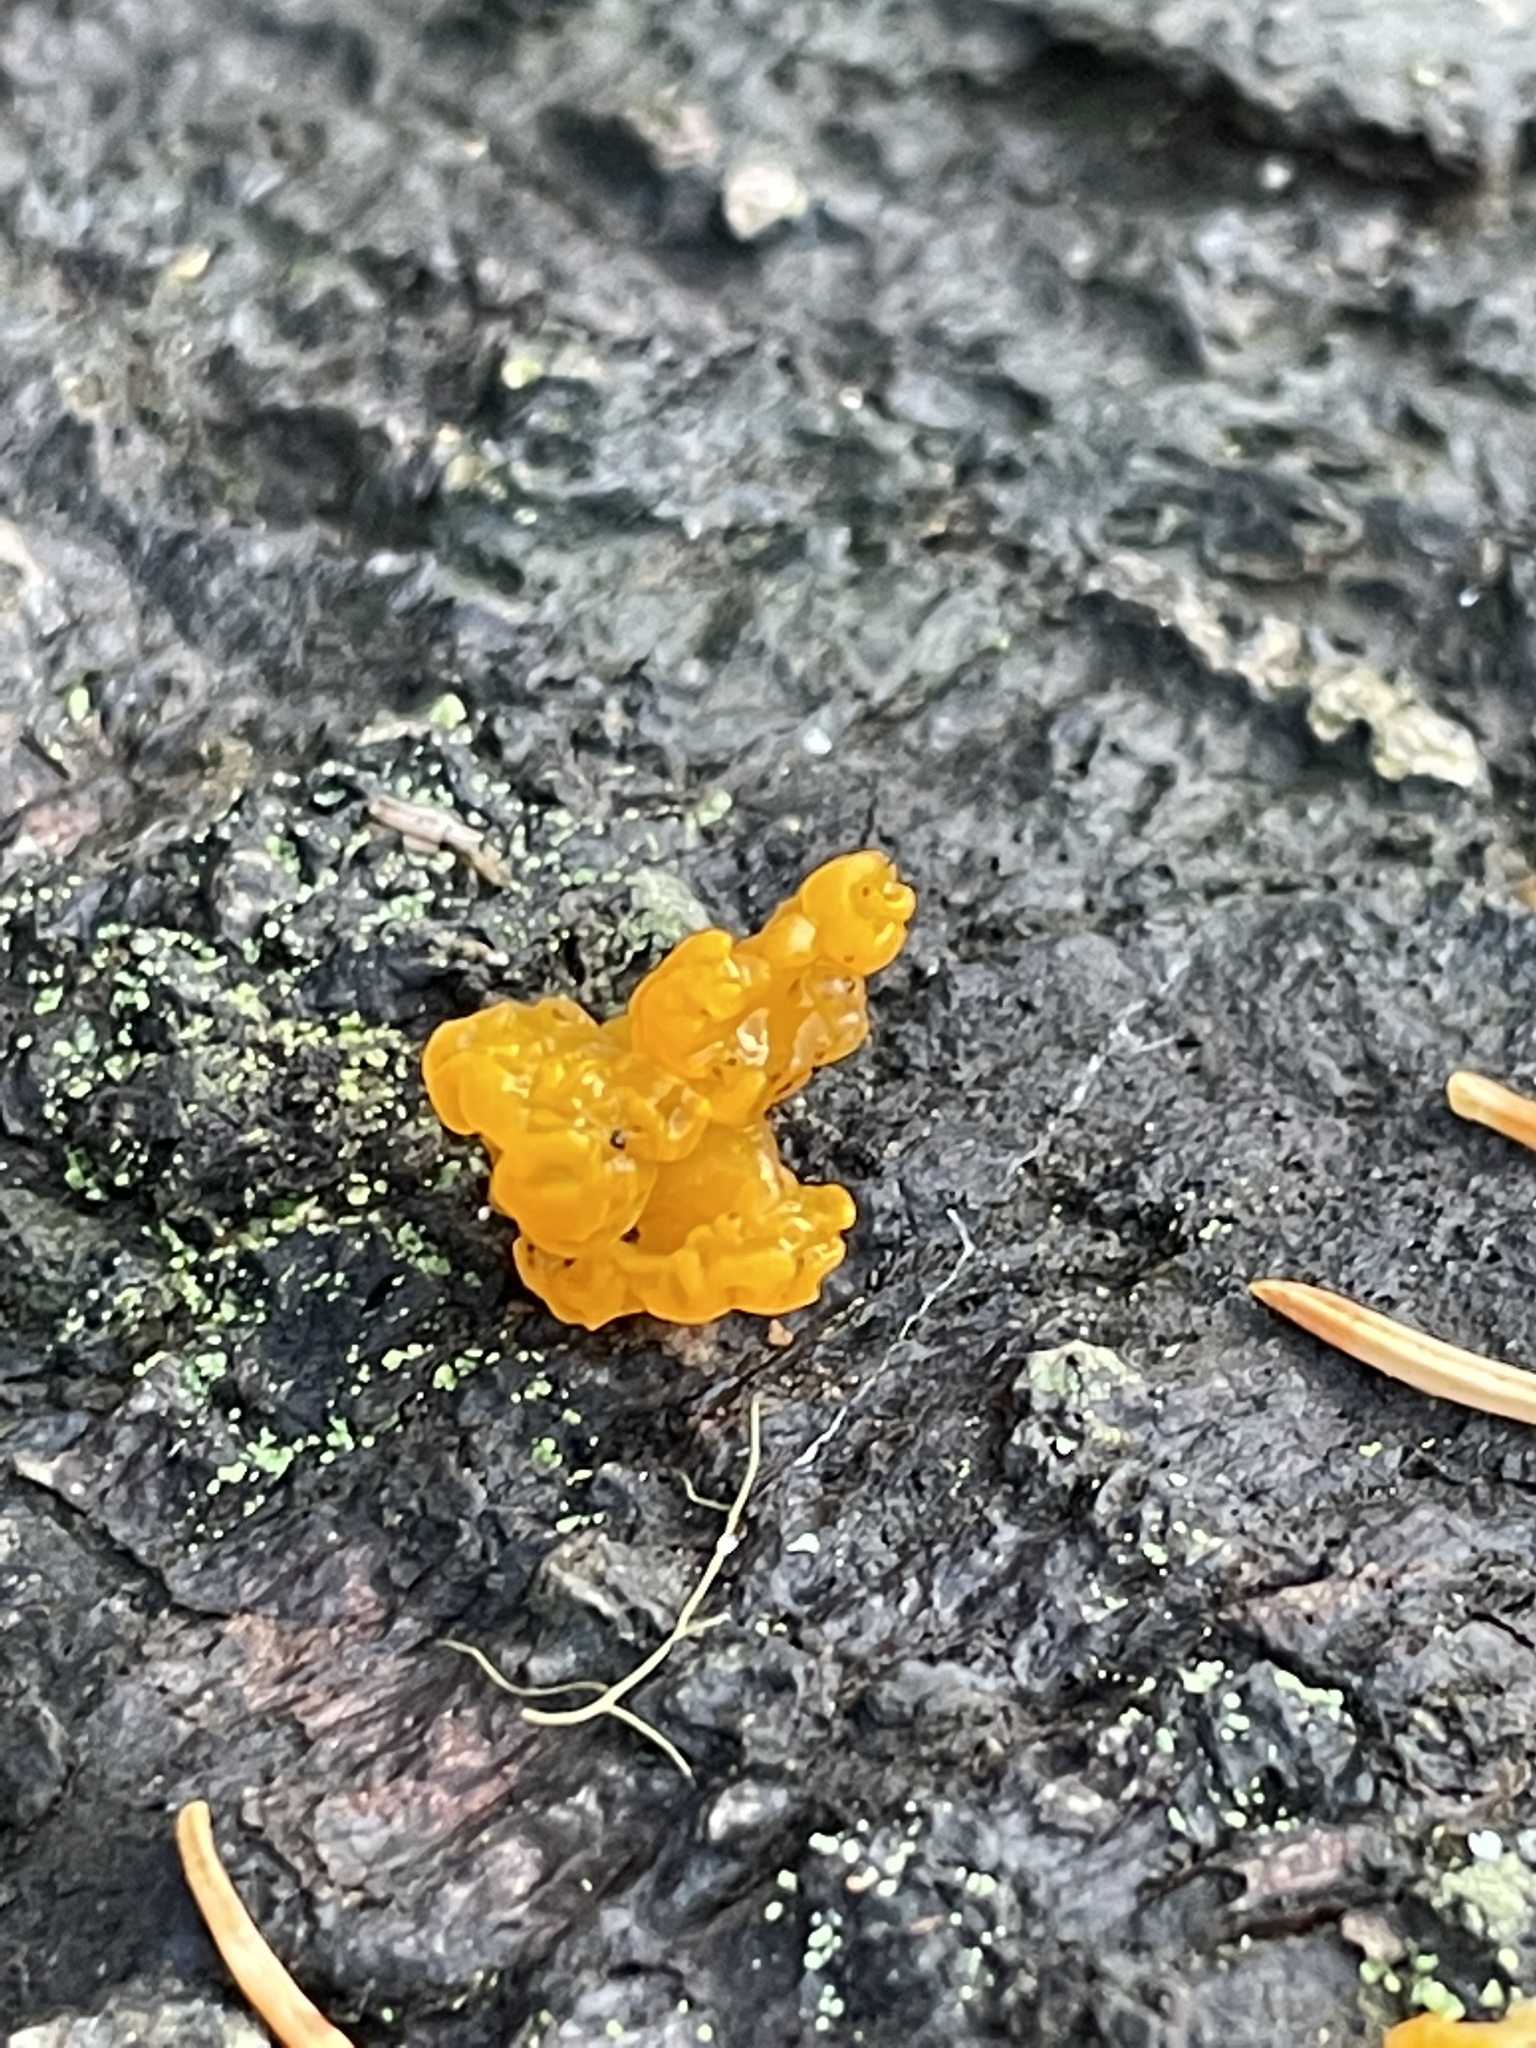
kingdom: Fungi
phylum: Basidiomycota
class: Dacrymycetes
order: Dacrymycetales
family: Dacrymycetaceae
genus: Dacrymyces
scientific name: Dacrymyces chrysospermus
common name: Orange jelly spot
